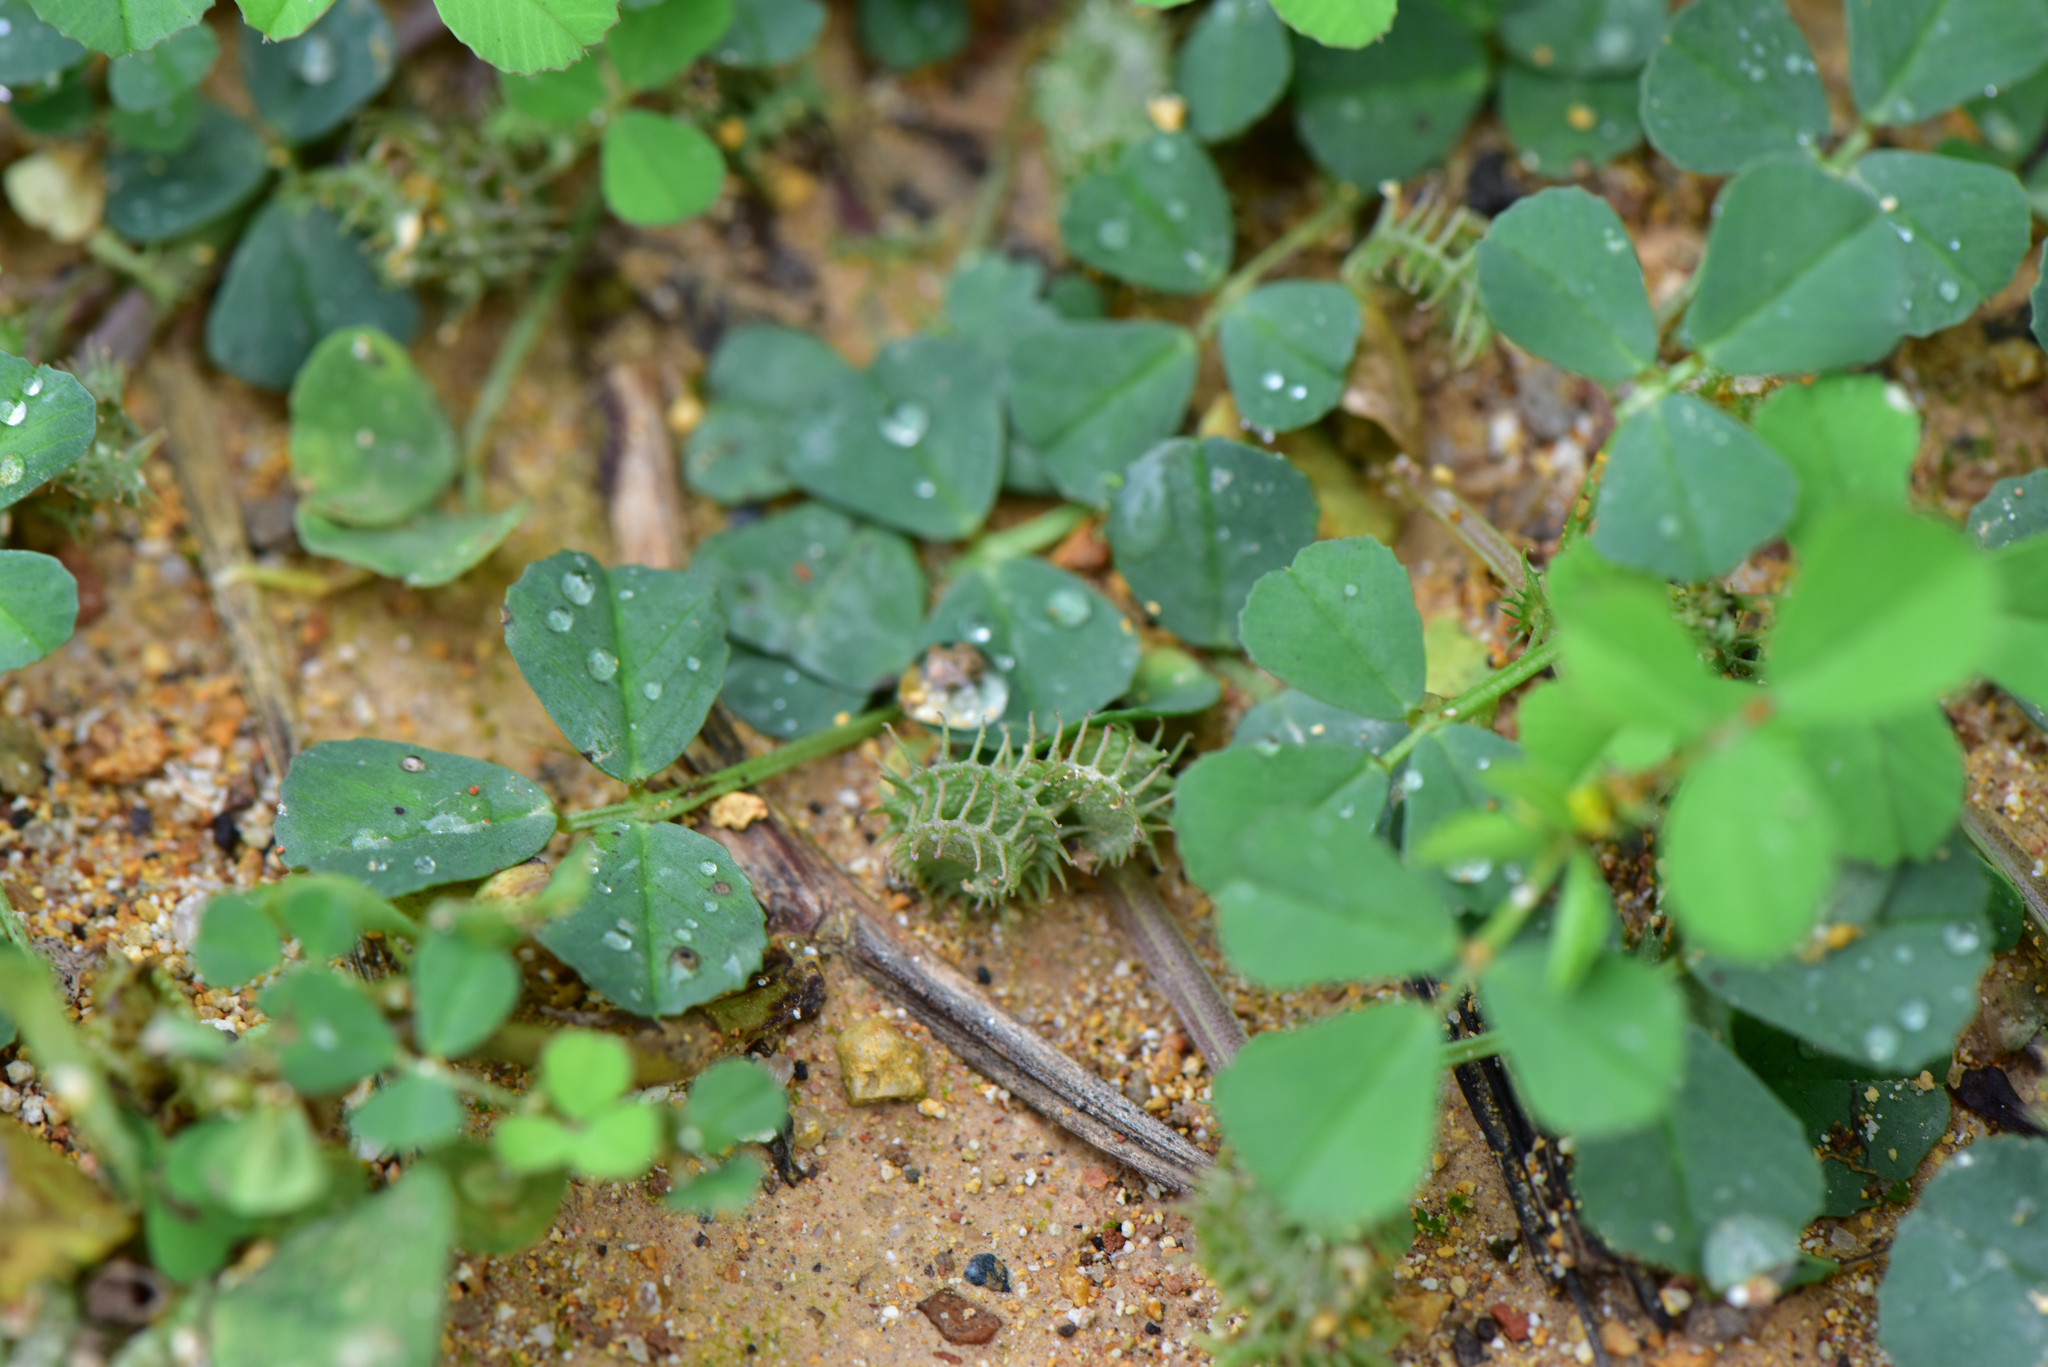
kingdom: Plantae
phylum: Tracheophyta
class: Magnoliopsida
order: Fabales
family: Fabaceae
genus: Medicago
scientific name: Medicago polymorpha
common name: Burclover
